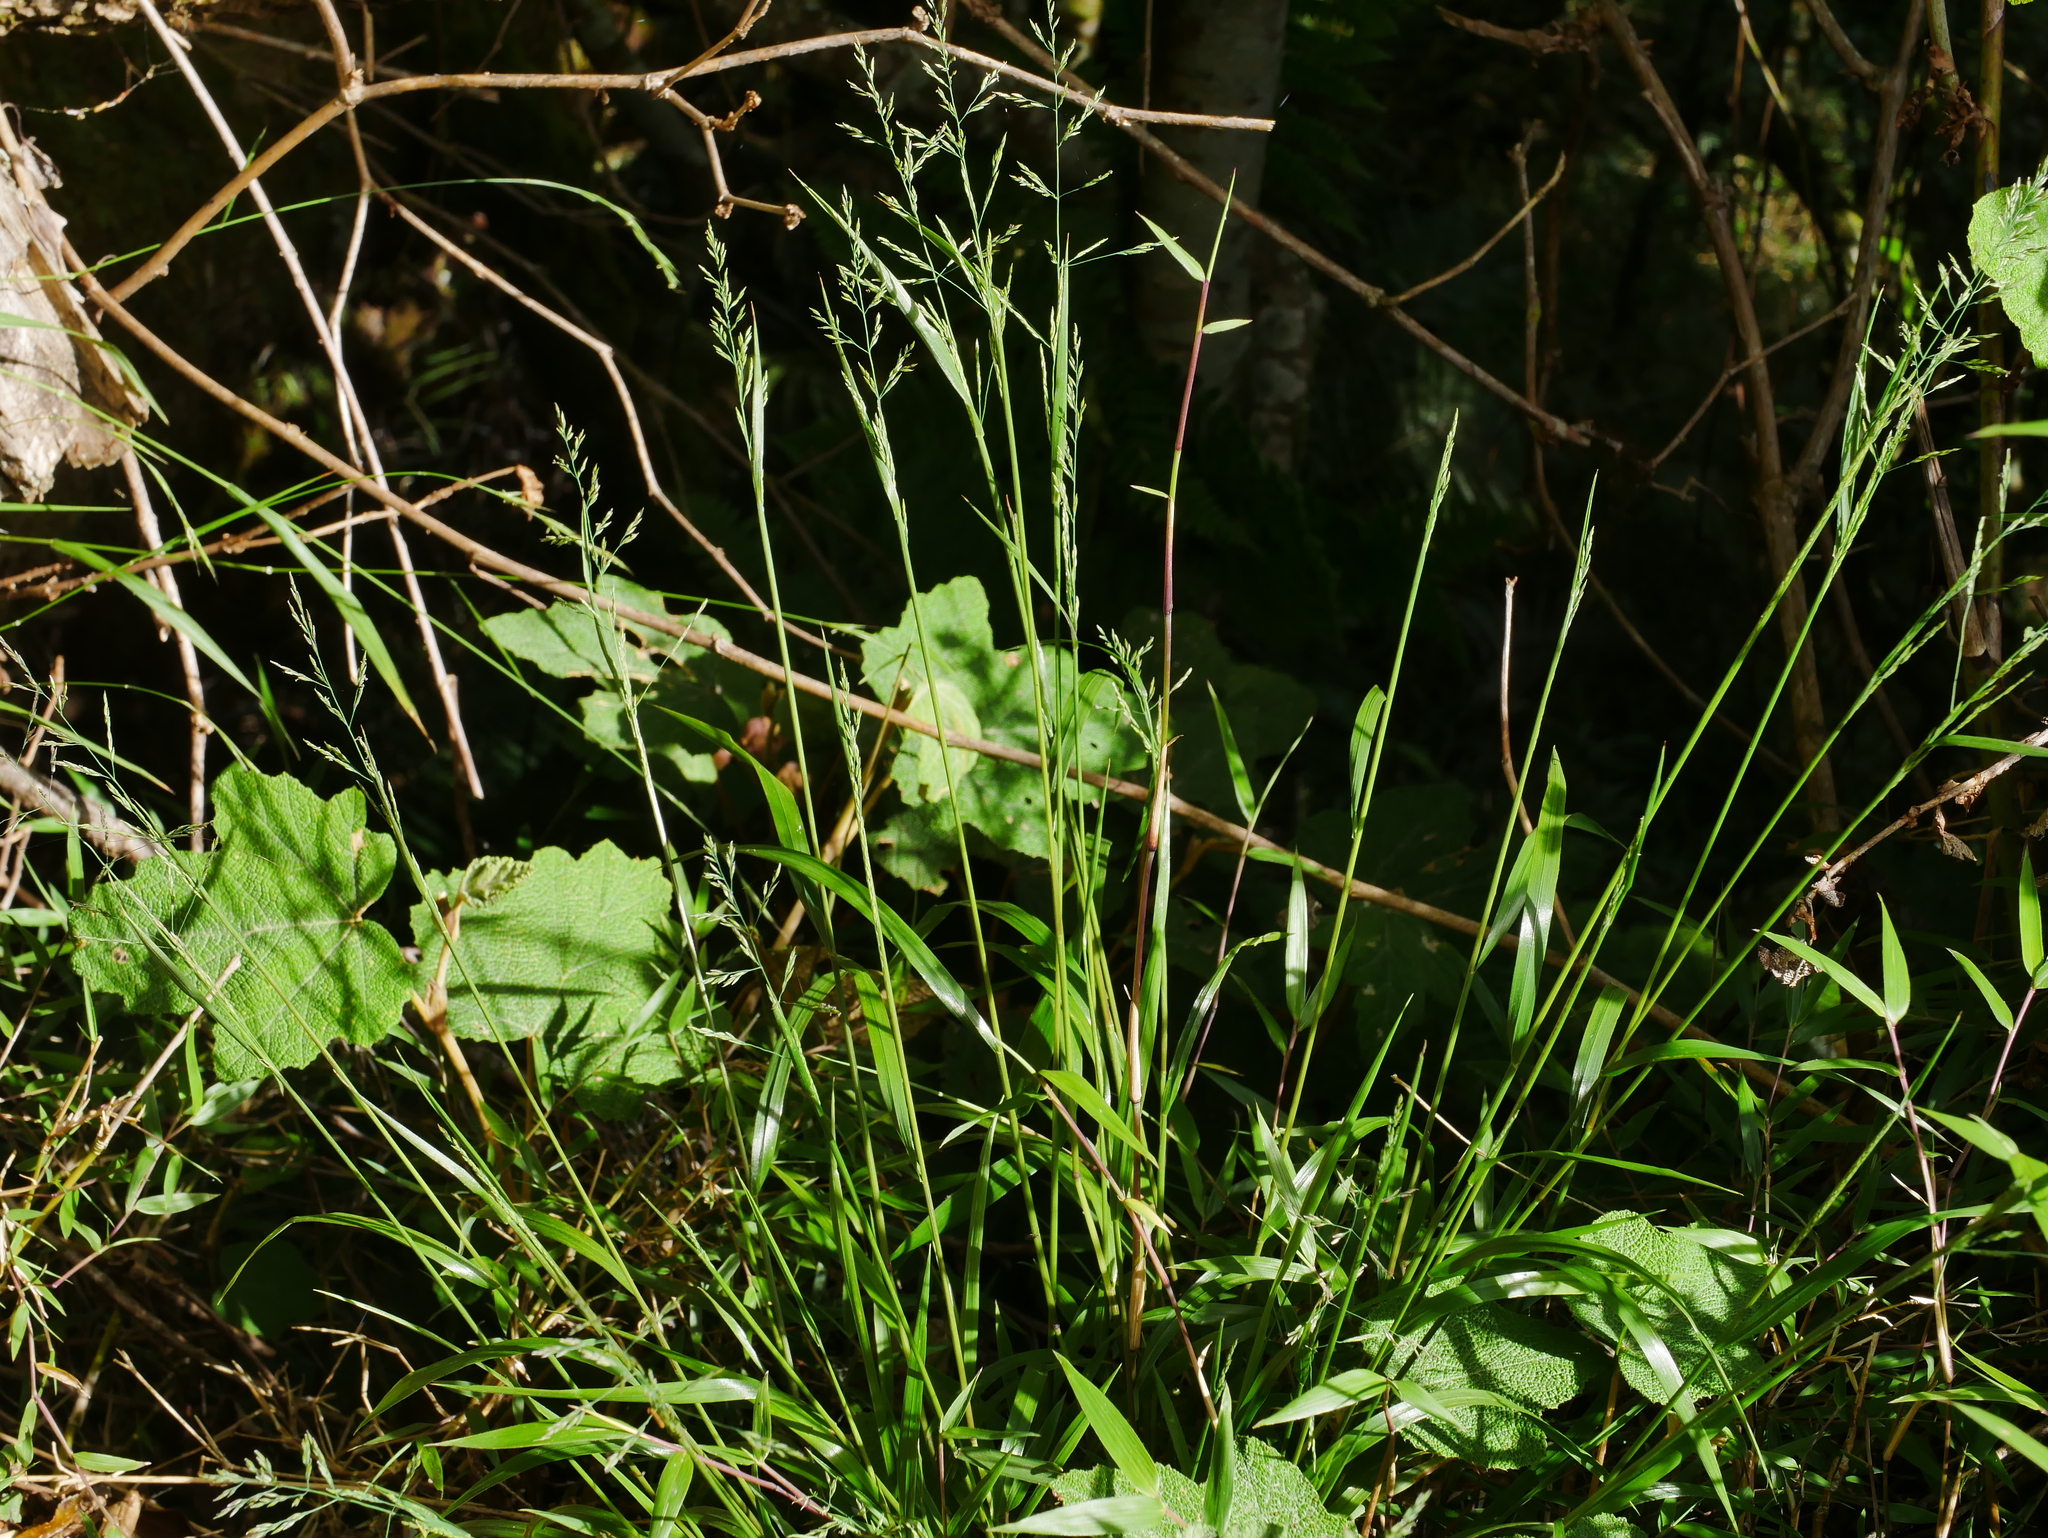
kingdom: Plantae
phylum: Tracheophyta
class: Liliopsida
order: Poales
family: Poaceae
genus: Aniselytron
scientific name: Aniselytron agrostoides
